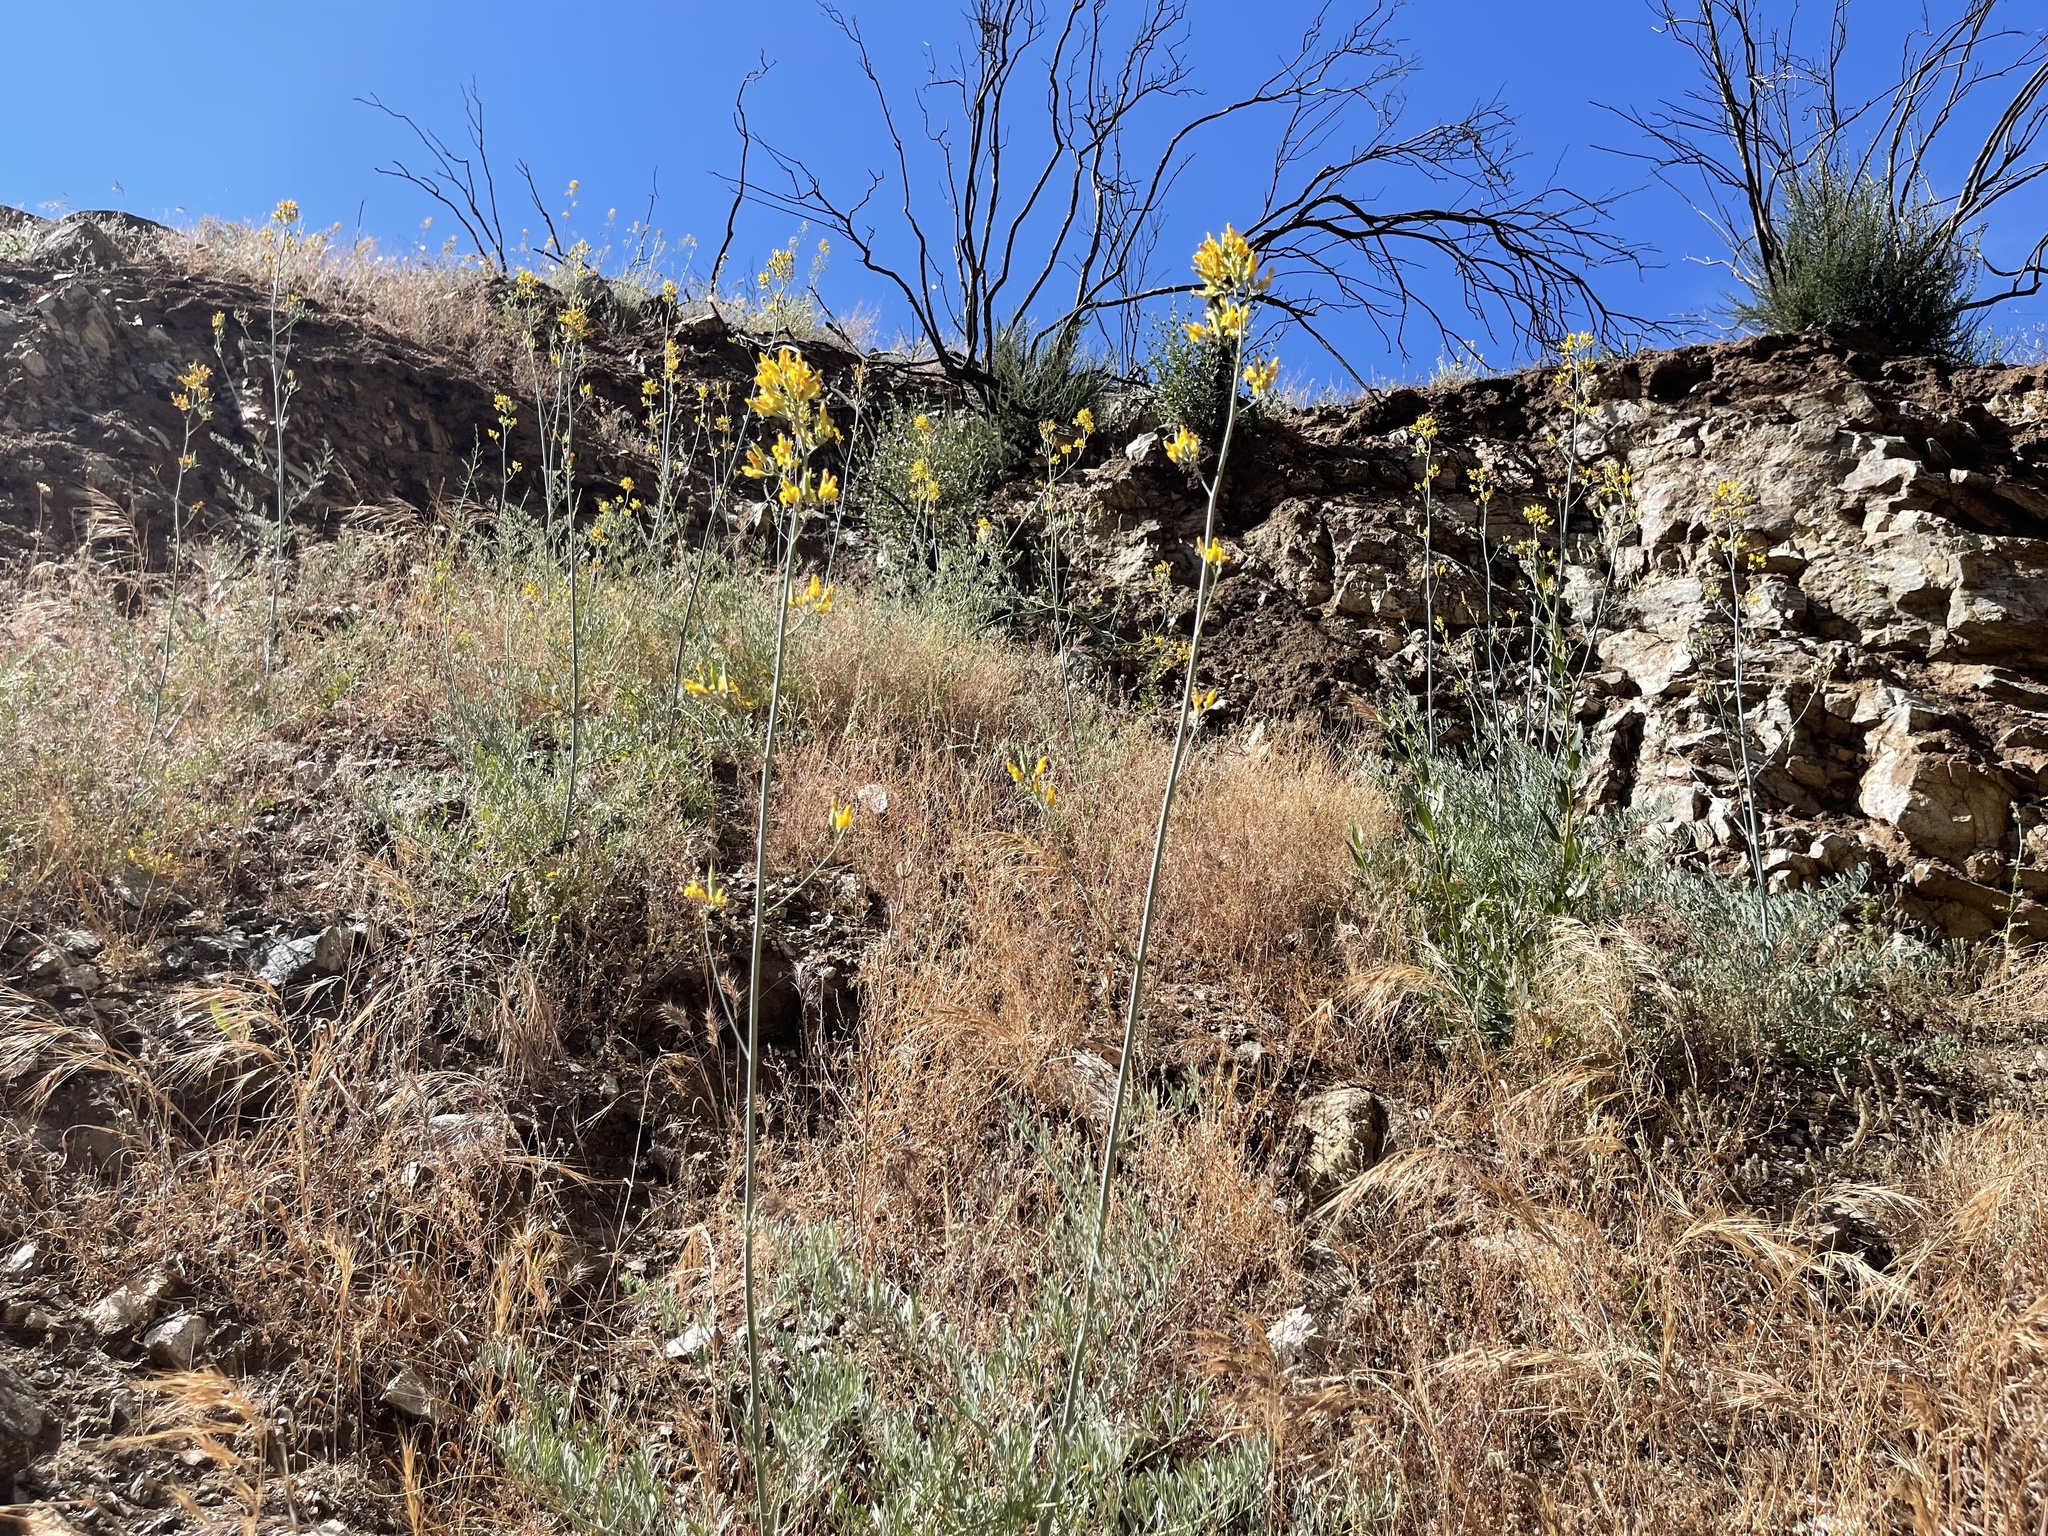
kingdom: Plantae
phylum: Tracheophyta
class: Magnoliopsida
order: Ranunculales
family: Papaveraceae
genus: Ehrendorferia
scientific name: Ehrendorferia chrysantha
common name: Golden eardrops
